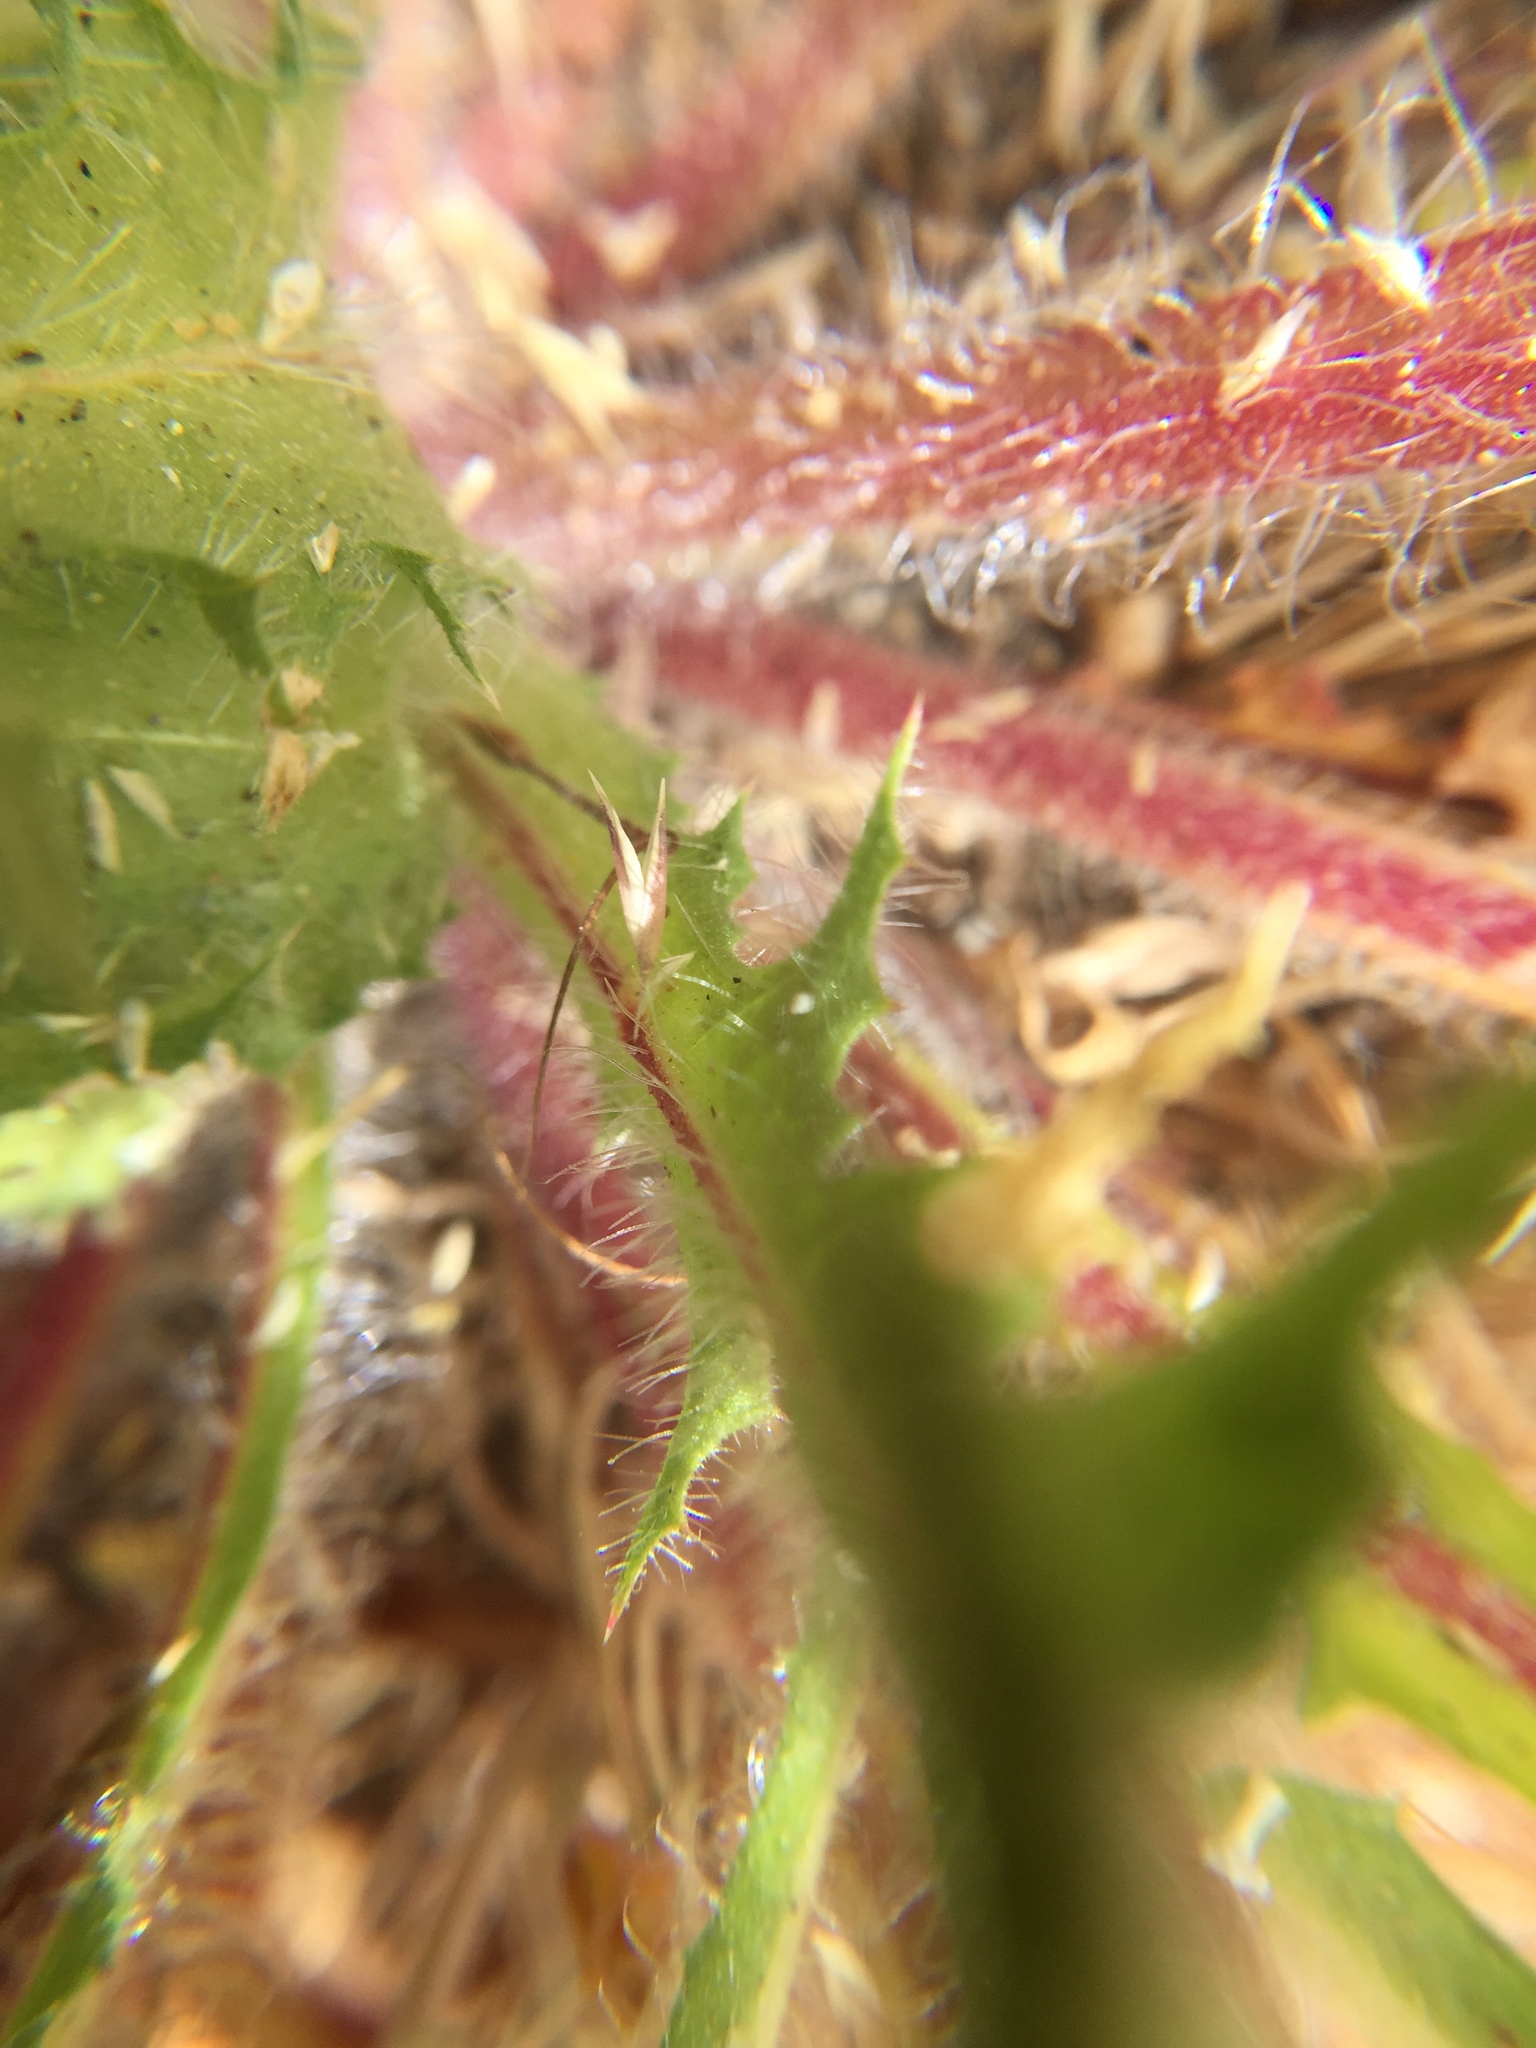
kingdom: Plantae
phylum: Tracheophyta
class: Magnoliopsida
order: Asterales
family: Asteraceae
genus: Centaurea
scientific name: Centaurea benedicta
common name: Blessed thistle
